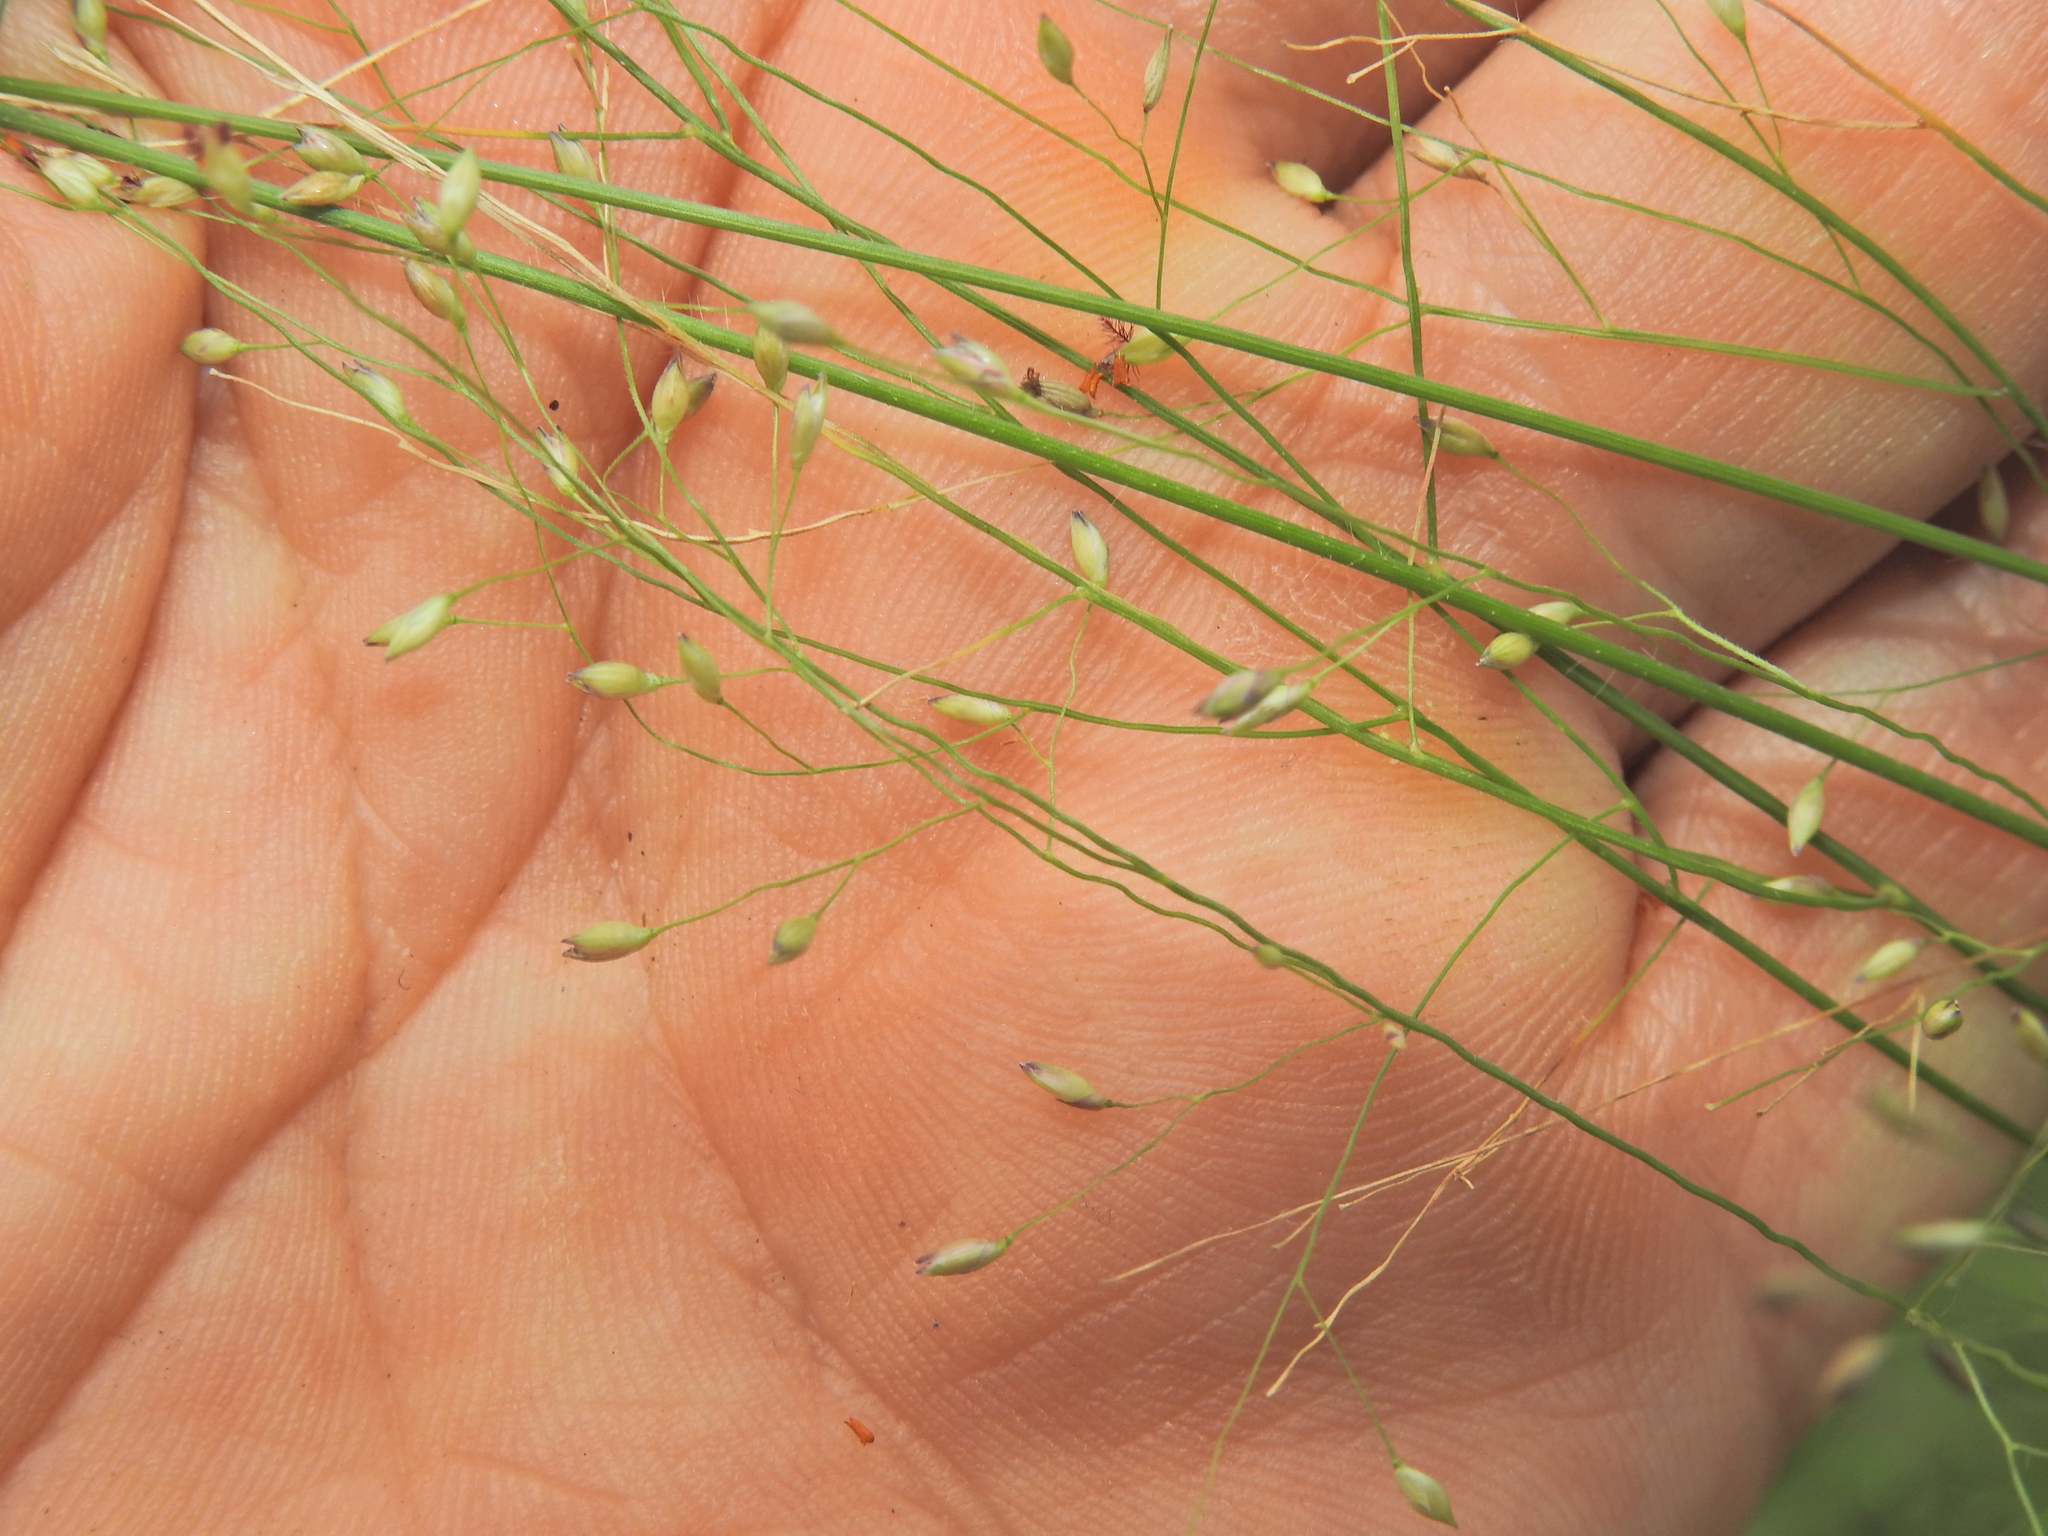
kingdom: Plantae
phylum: Tracheophyta
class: Liliopsida
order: Poales
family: Poaceae
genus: Panicum
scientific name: Panicum effusum
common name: Hairy panic grass
